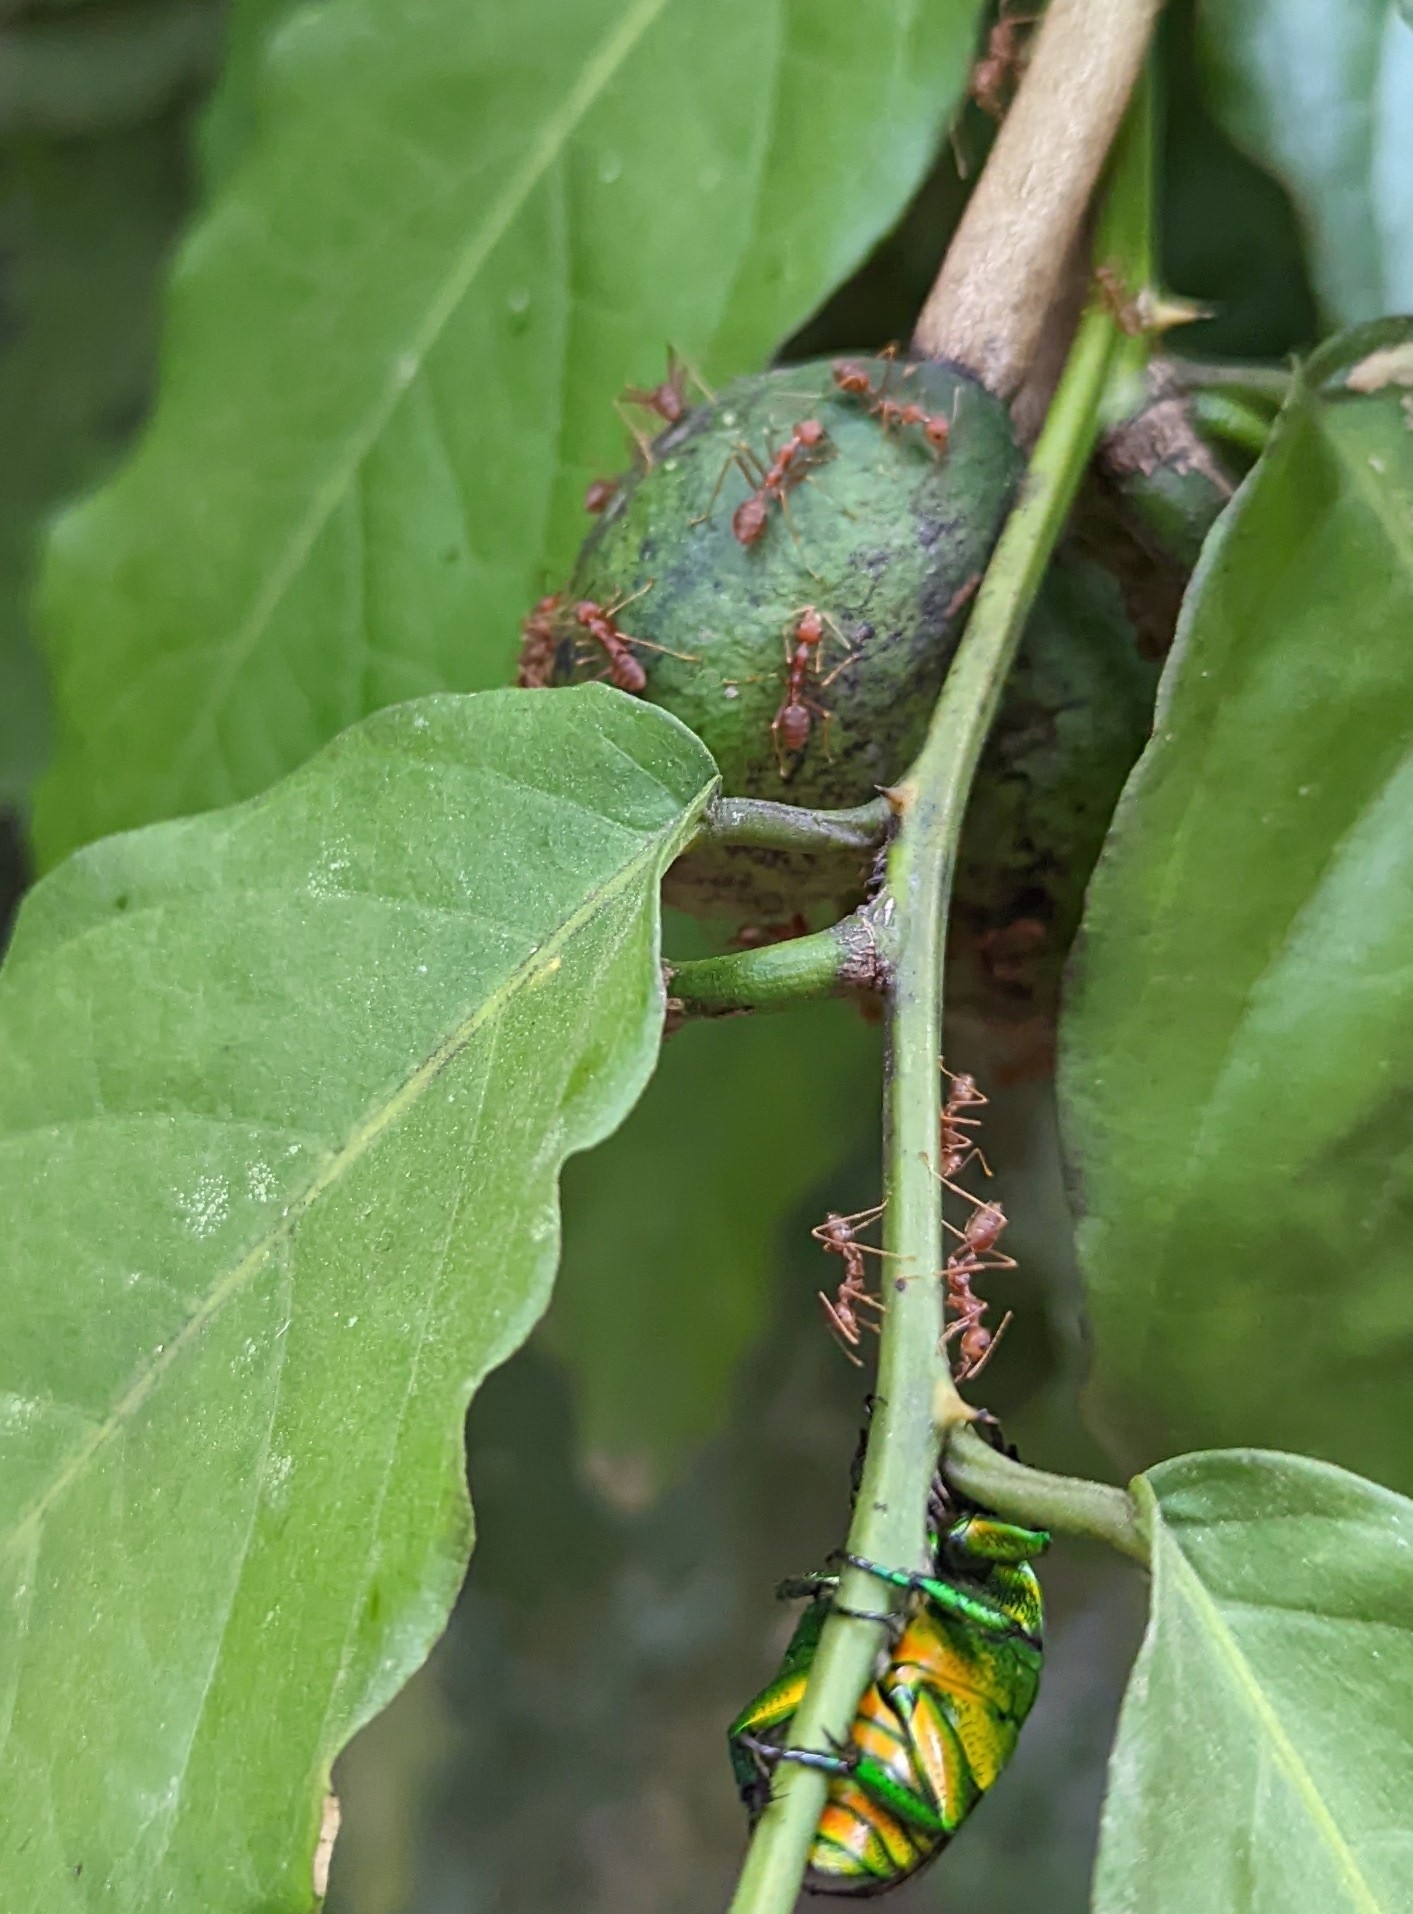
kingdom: Animalia
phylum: Arthropoda
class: Insecta
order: Hymenoptera
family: Formicidae
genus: Oecophylla
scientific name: Oecophylla smaragdina
